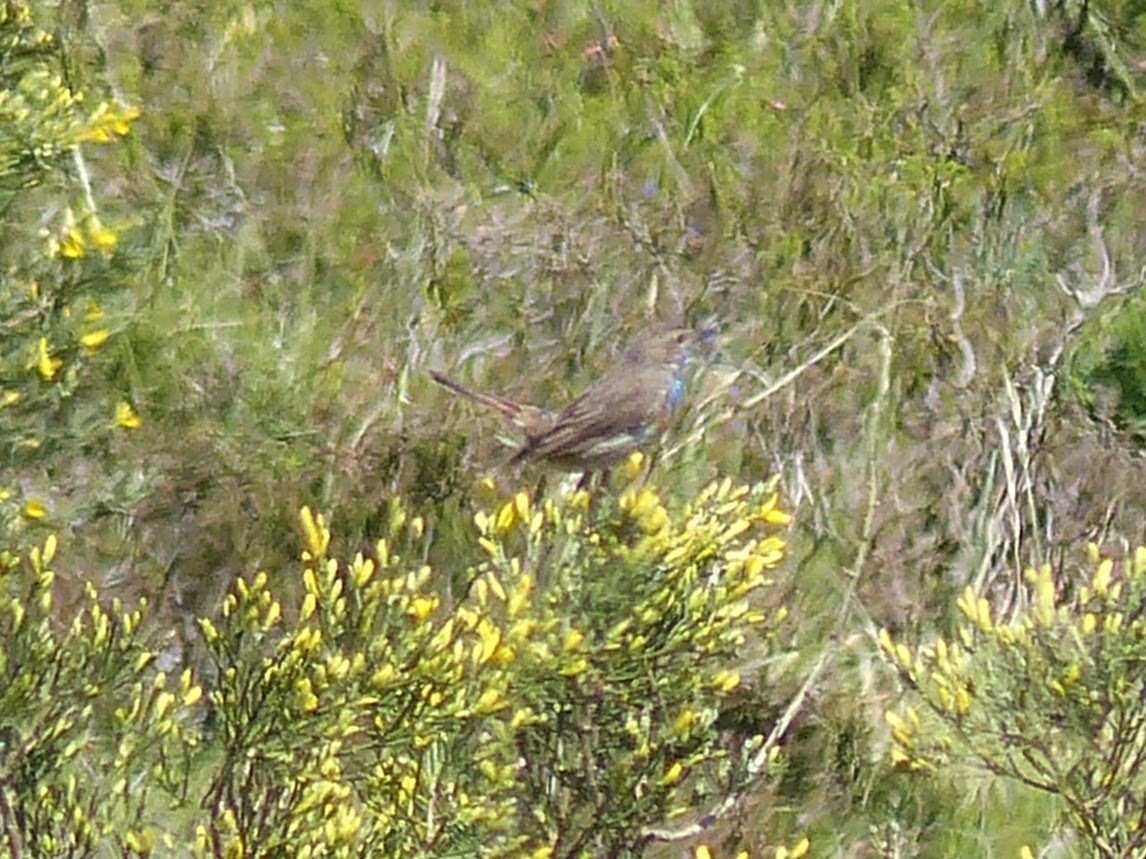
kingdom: Animalia
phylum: Chordata
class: Aves
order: Passeriformes
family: Muscicapidae
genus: Luscinia
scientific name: Luscinia svecica
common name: Bluethroat
